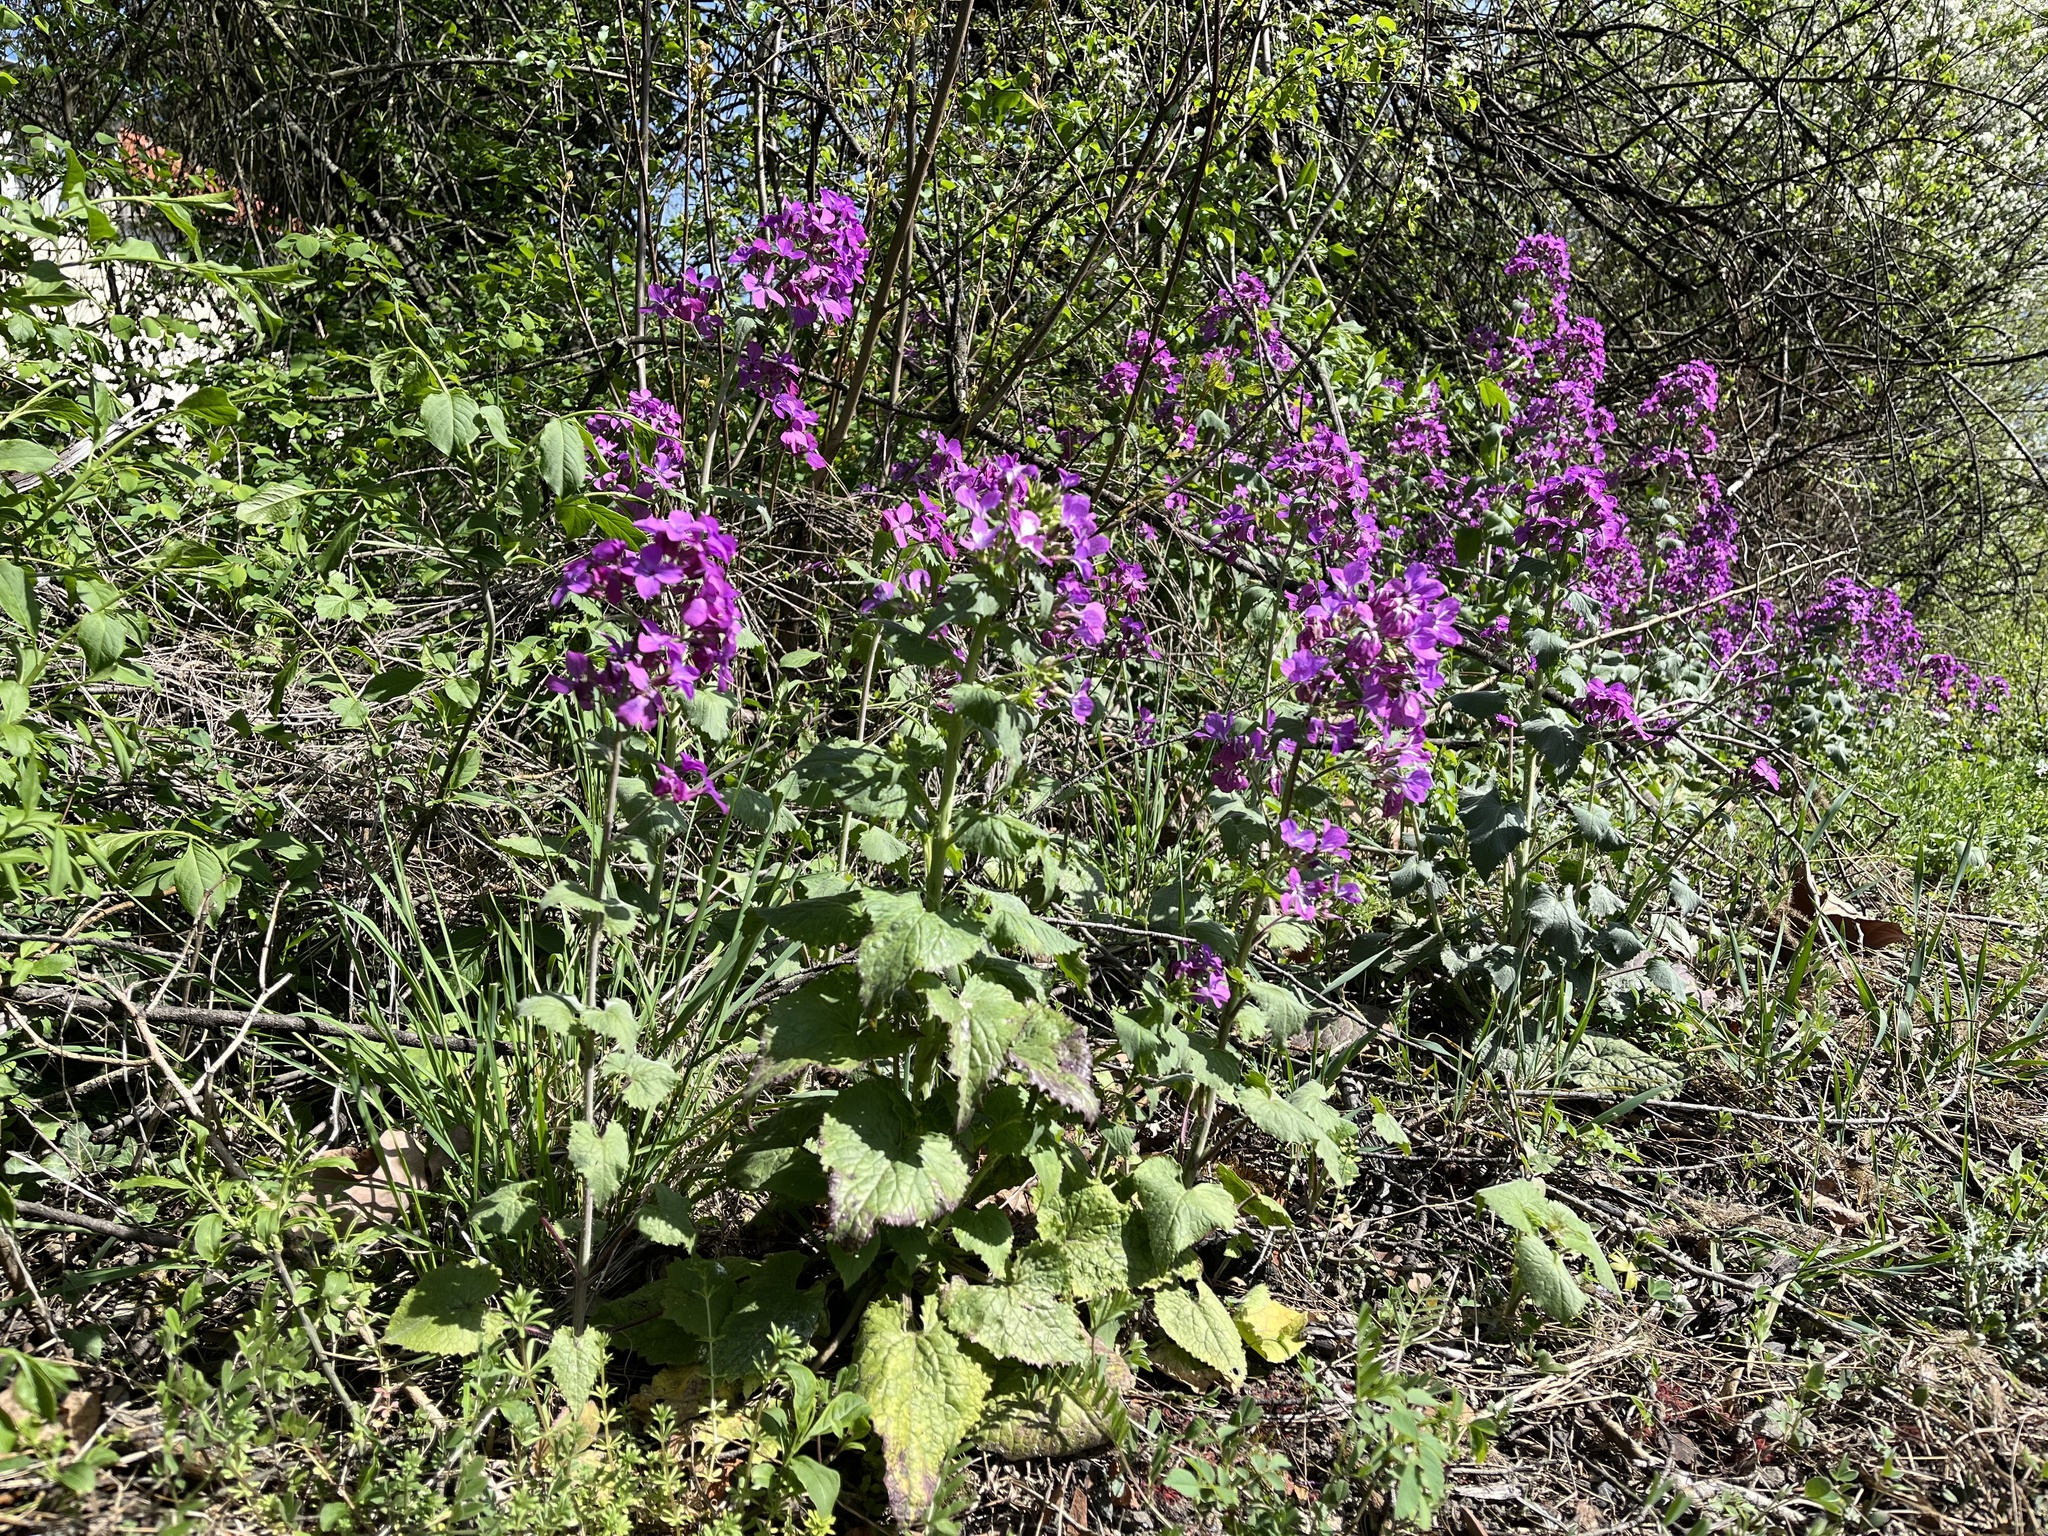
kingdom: Plantae
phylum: Tracheophyta
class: Magnoliopsida
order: Brassicales
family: Brassicaceae
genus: Lunaria
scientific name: Lunaria annua
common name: Honesty
